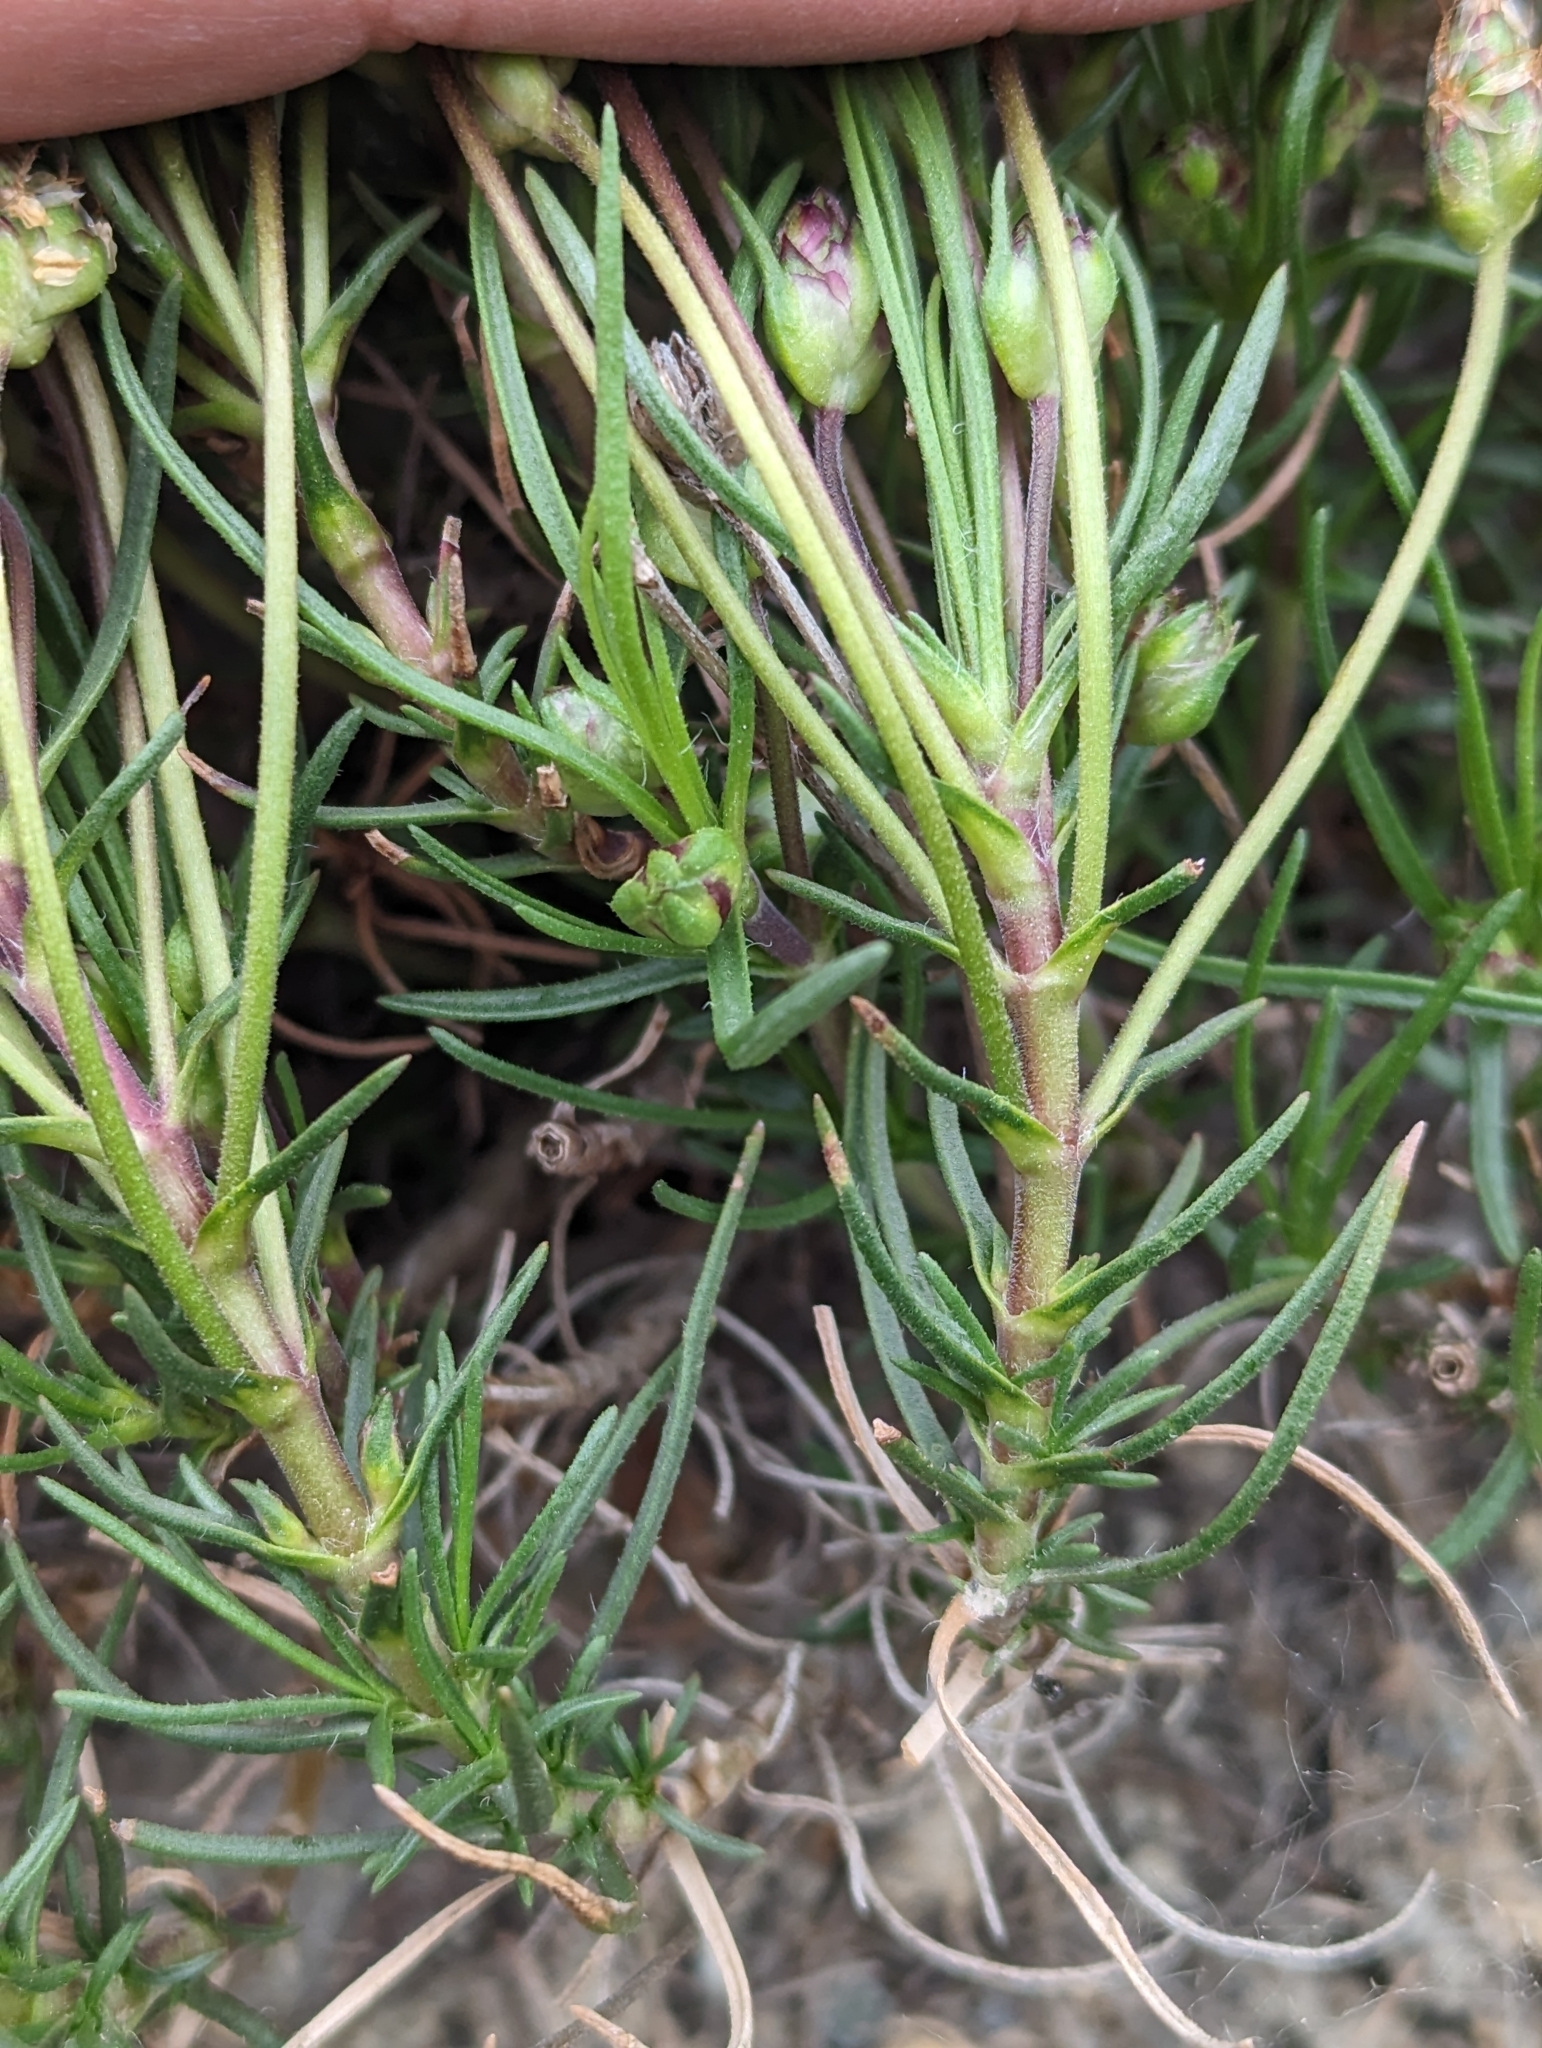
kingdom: Plantae
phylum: Tracheophyta
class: Magnoliopsida
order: Lamiales
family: Plantaginaceae
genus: Plantago
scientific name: Plantago sempervirens
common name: Shrubby plantain
